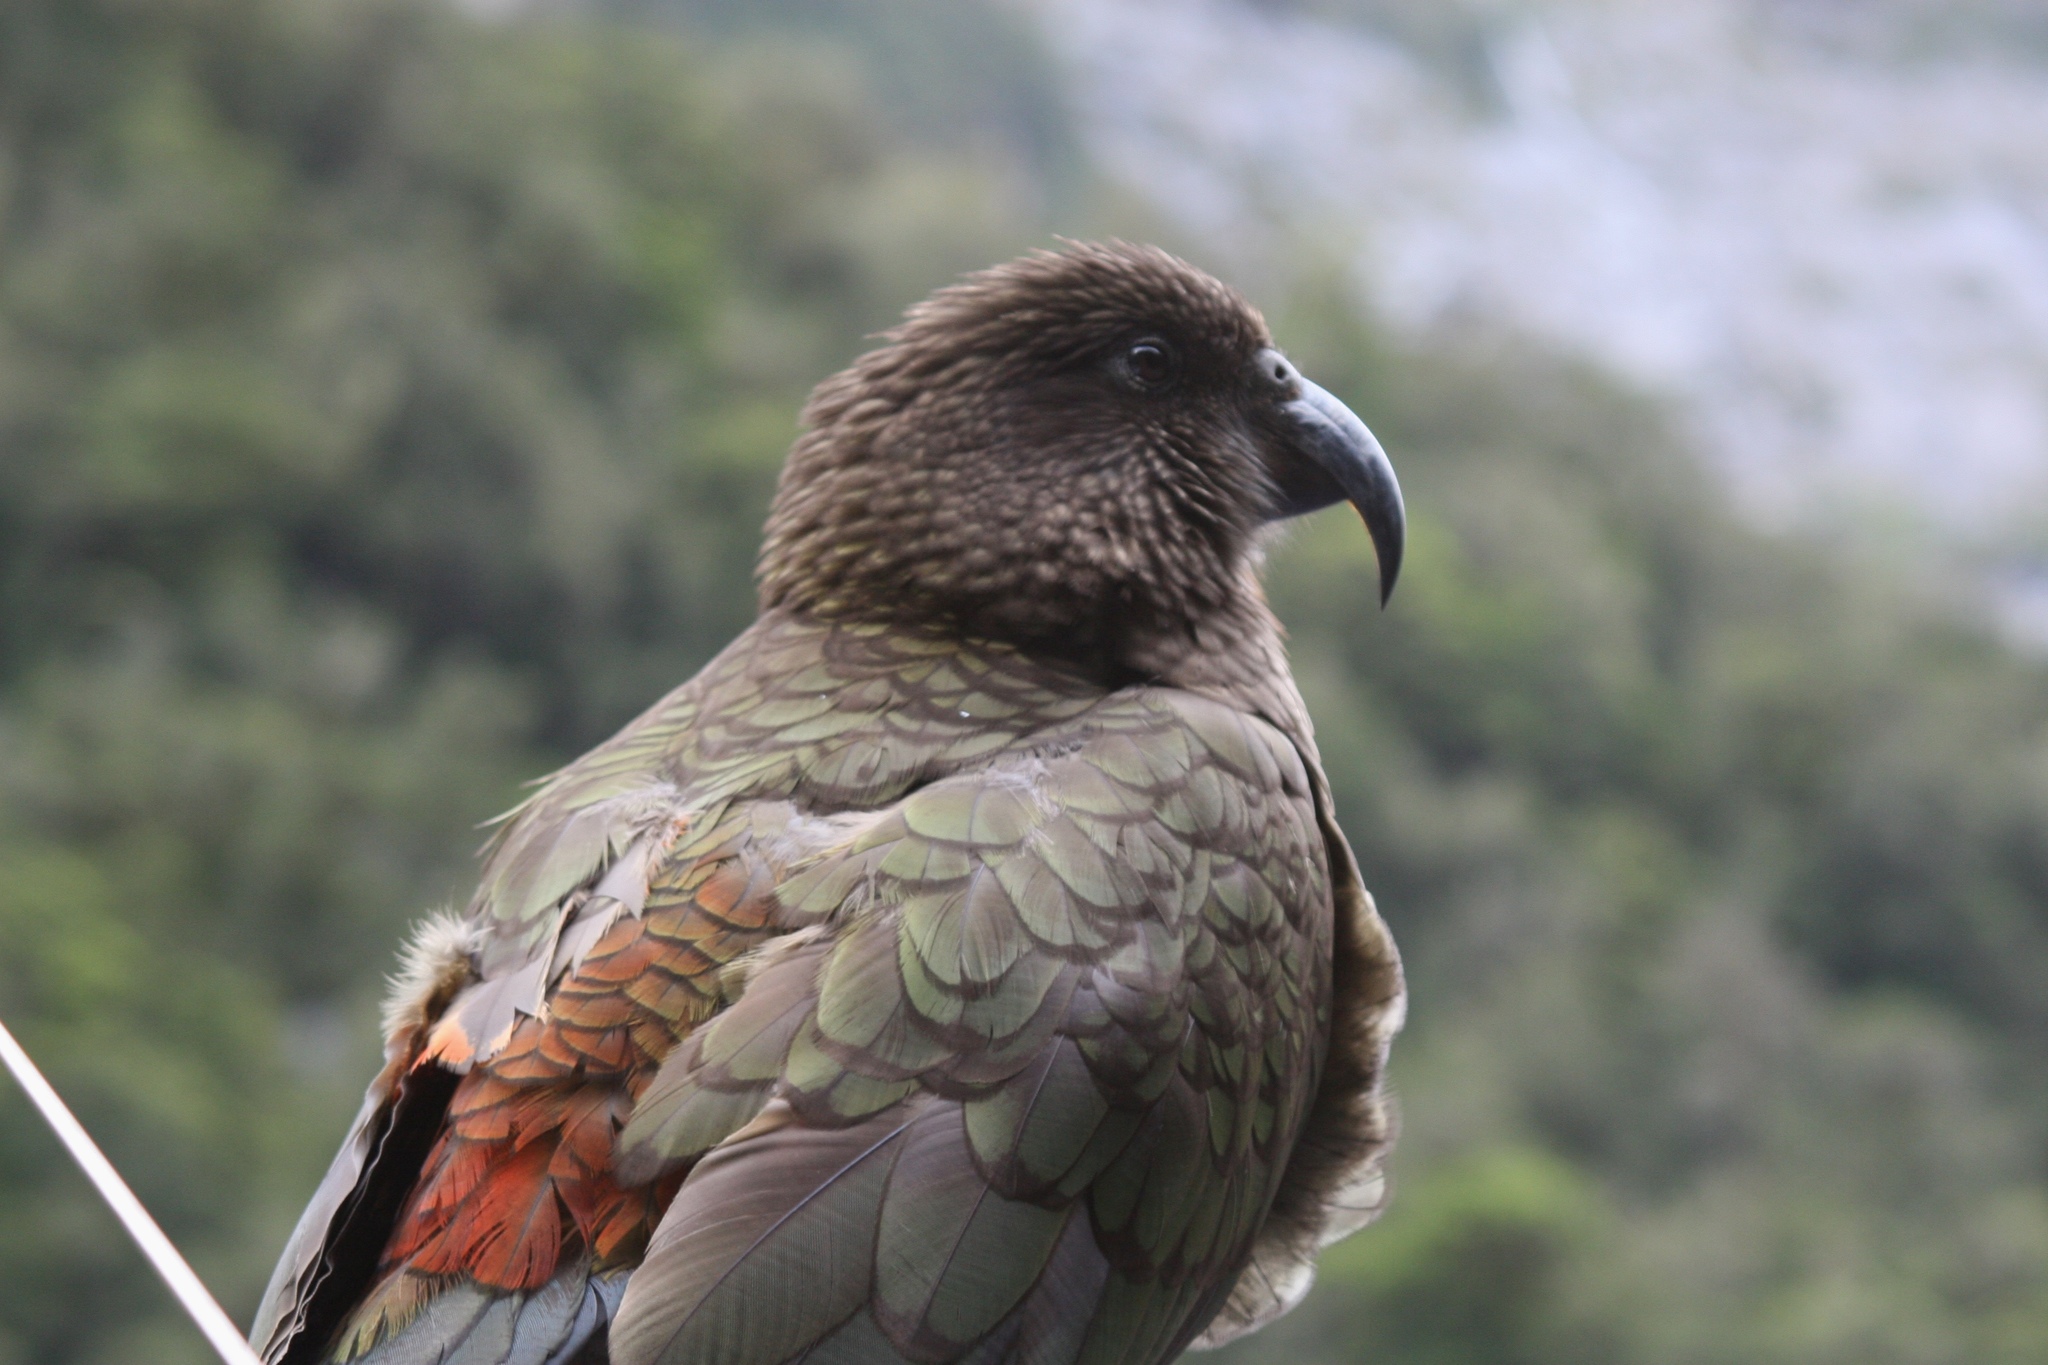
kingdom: Animalia
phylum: Chordata
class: Aves
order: Psittaciformes
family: Psittacidae
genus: Nestor
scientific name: Nestor notabilis
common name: Kea
